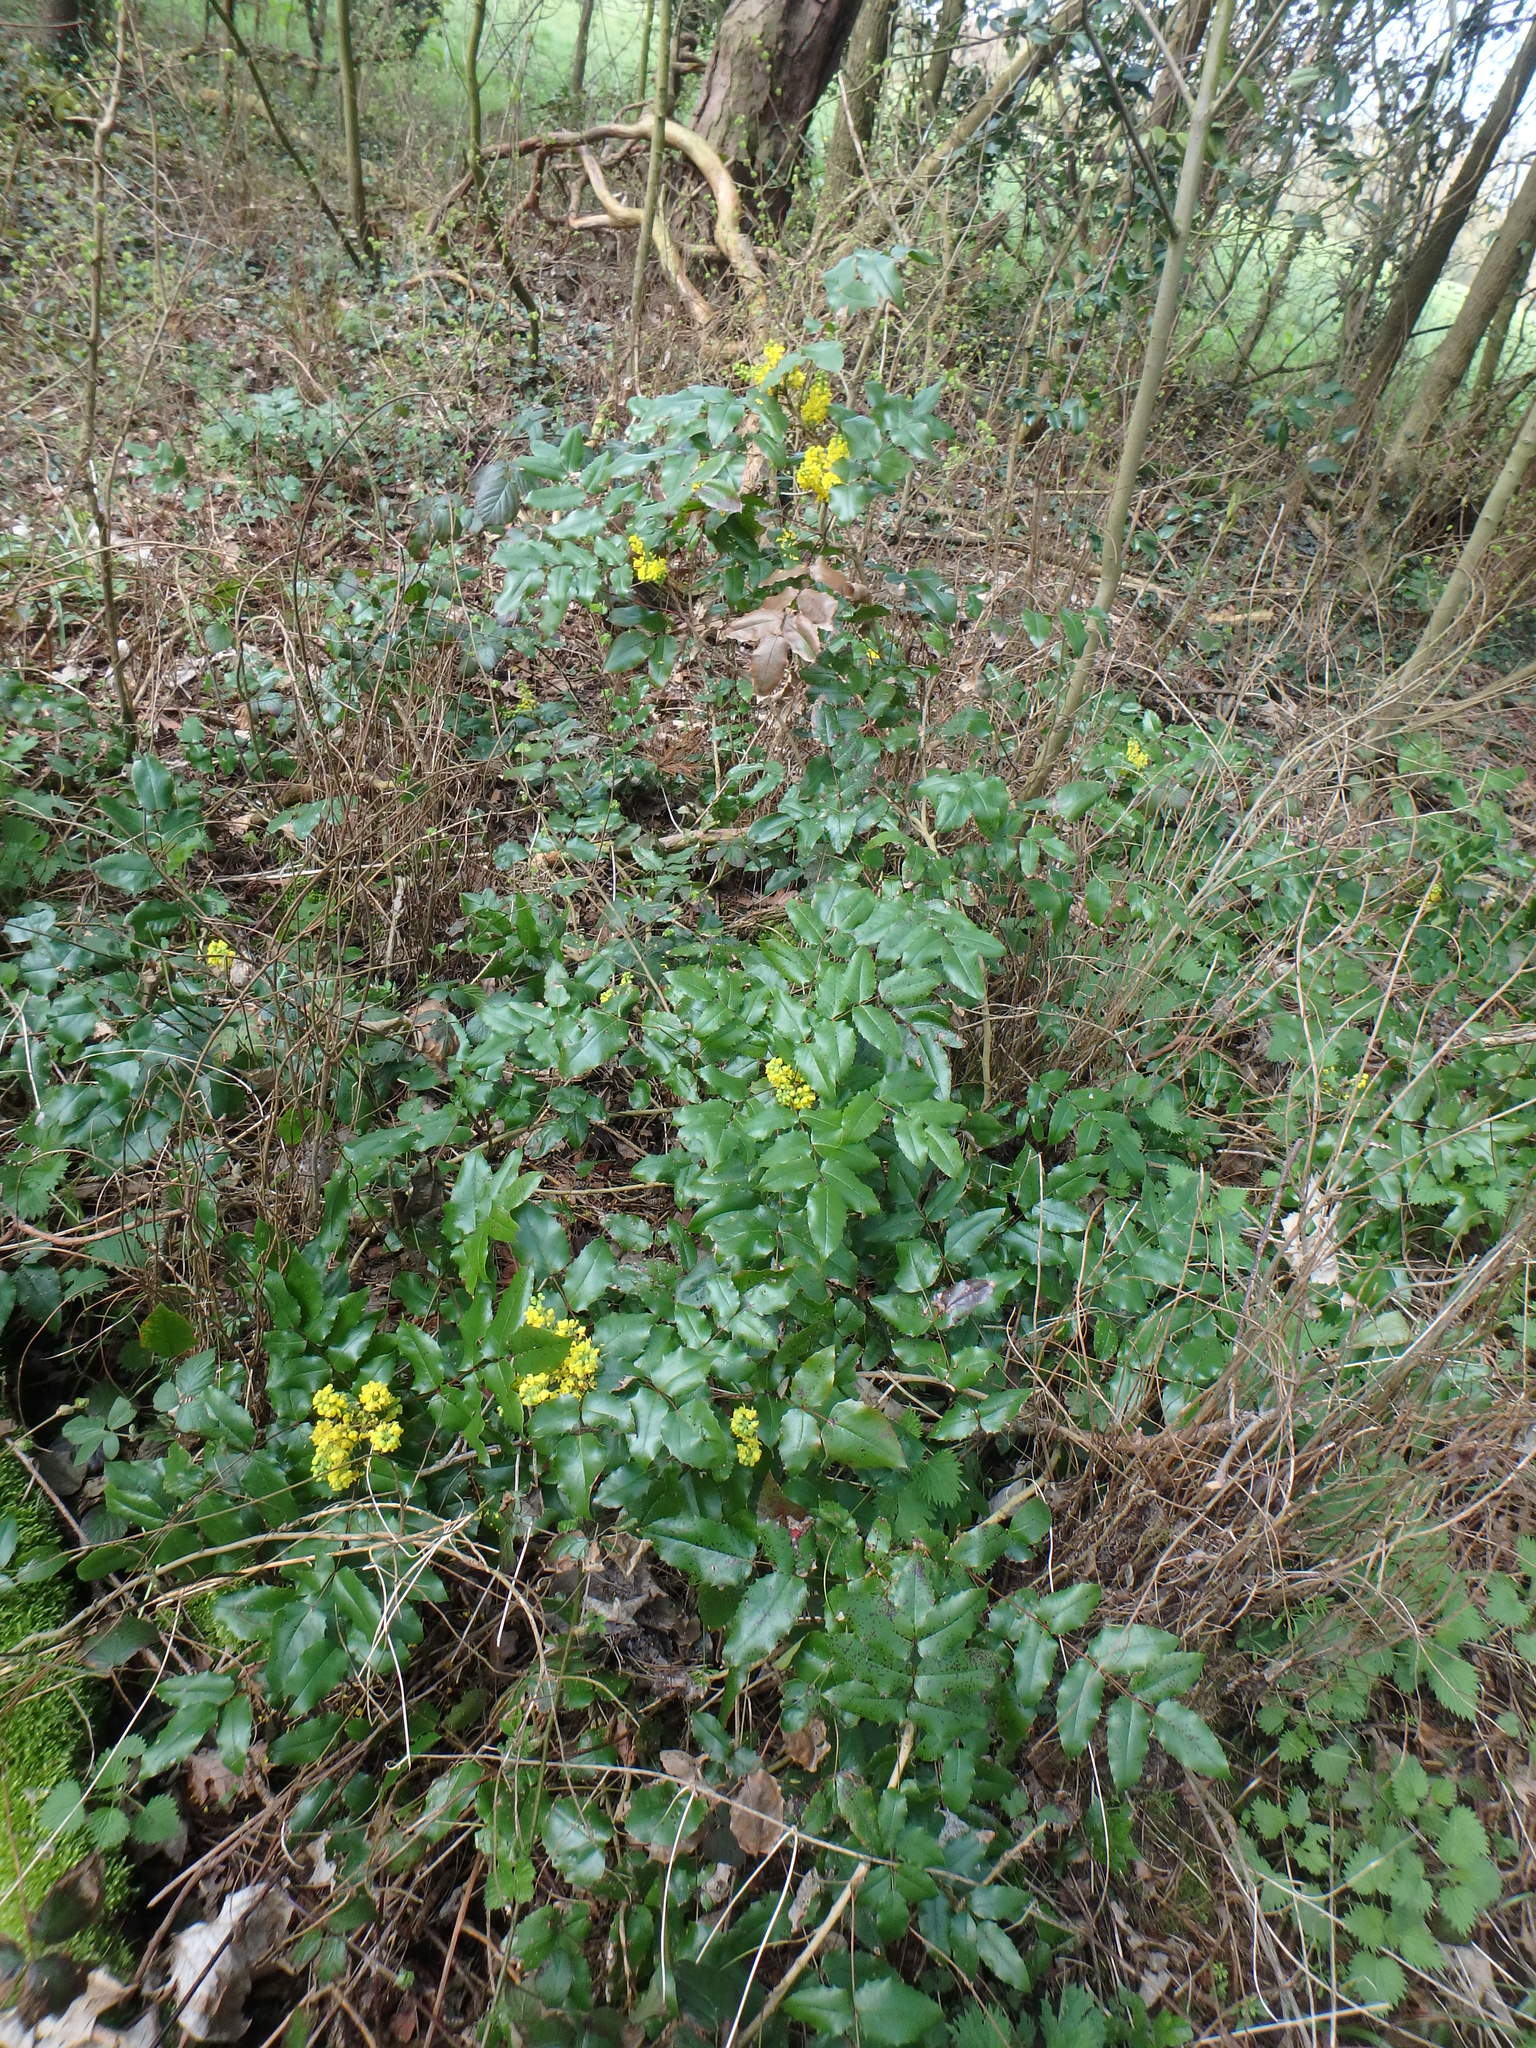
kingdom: Plantae
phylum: Tracheophyta
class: Magnoliopsida
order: Ranunculales
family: Berberidaceae
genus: Mahonia
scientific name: Mahonia aquifolium
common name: Oregon-grape
